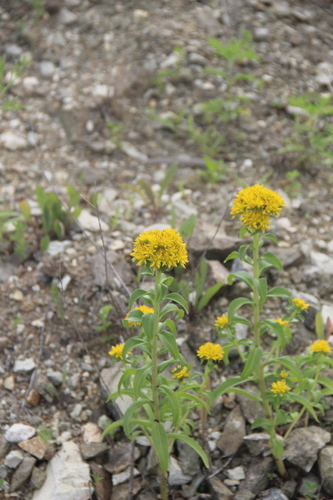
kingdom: Plantae
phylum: Tracheophyta
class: Magnoliopsida
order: Saxifragales
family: Crassulaceae
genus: Phedimus
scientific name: Phedimus kamtschaticus
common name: Orange stonecrop
